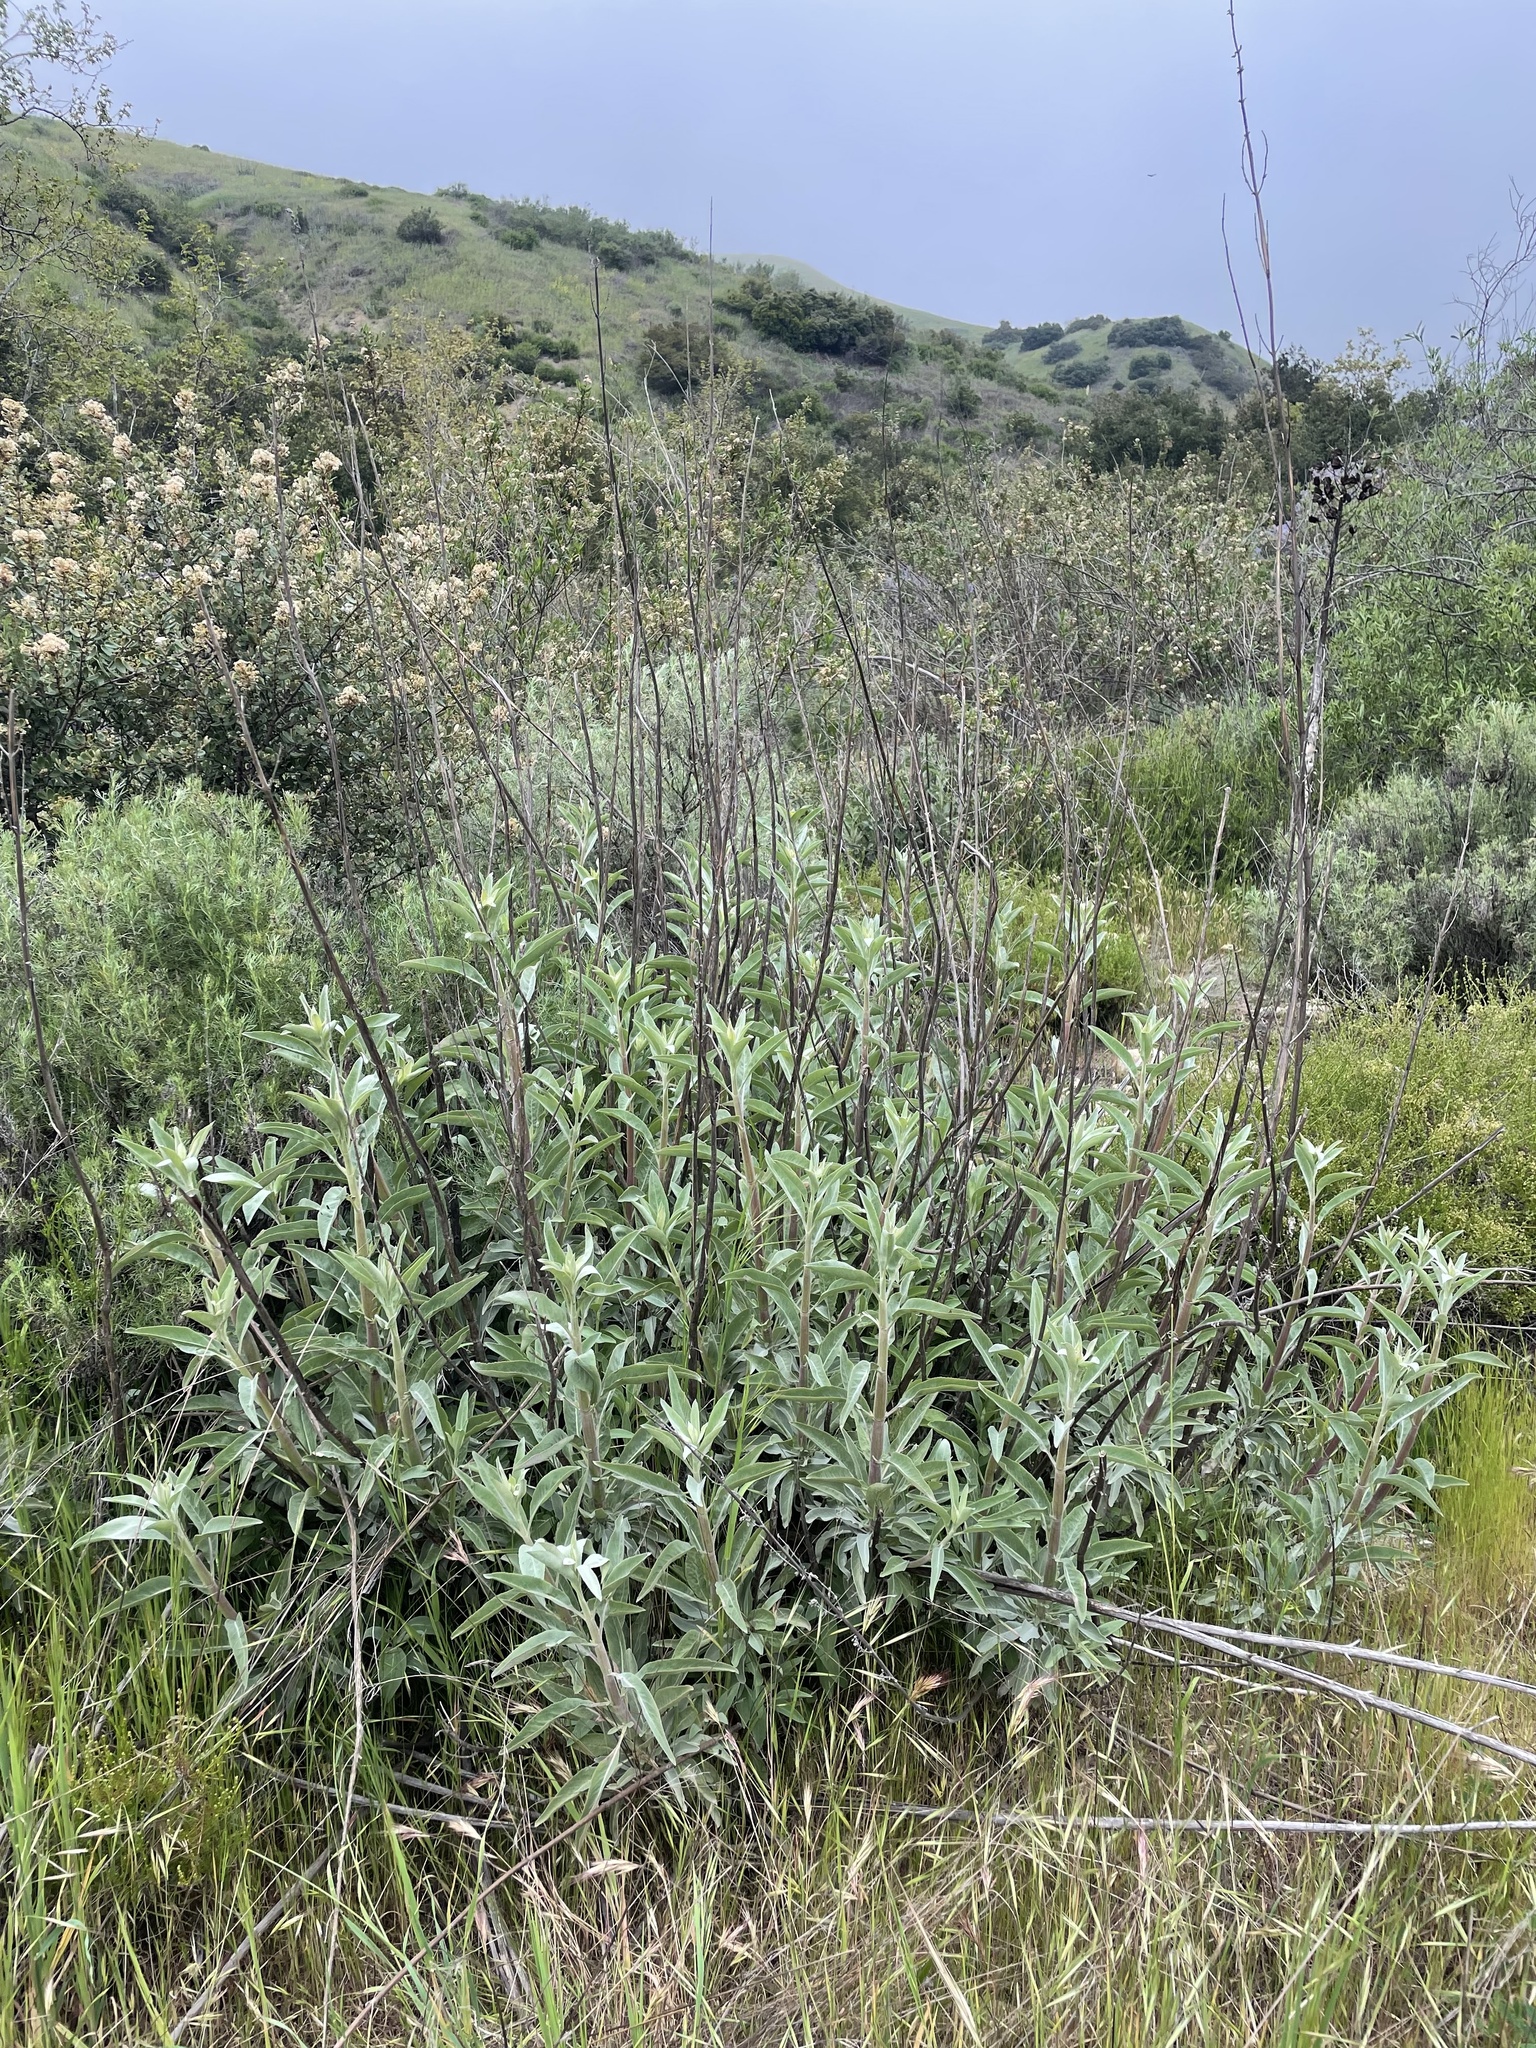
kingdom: Plantae
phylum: Tracheophyta
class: Magnoliopsida
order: Lamiales
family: Lamiaceae
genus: Salvia
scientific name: Salvia apiana
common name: White sage
